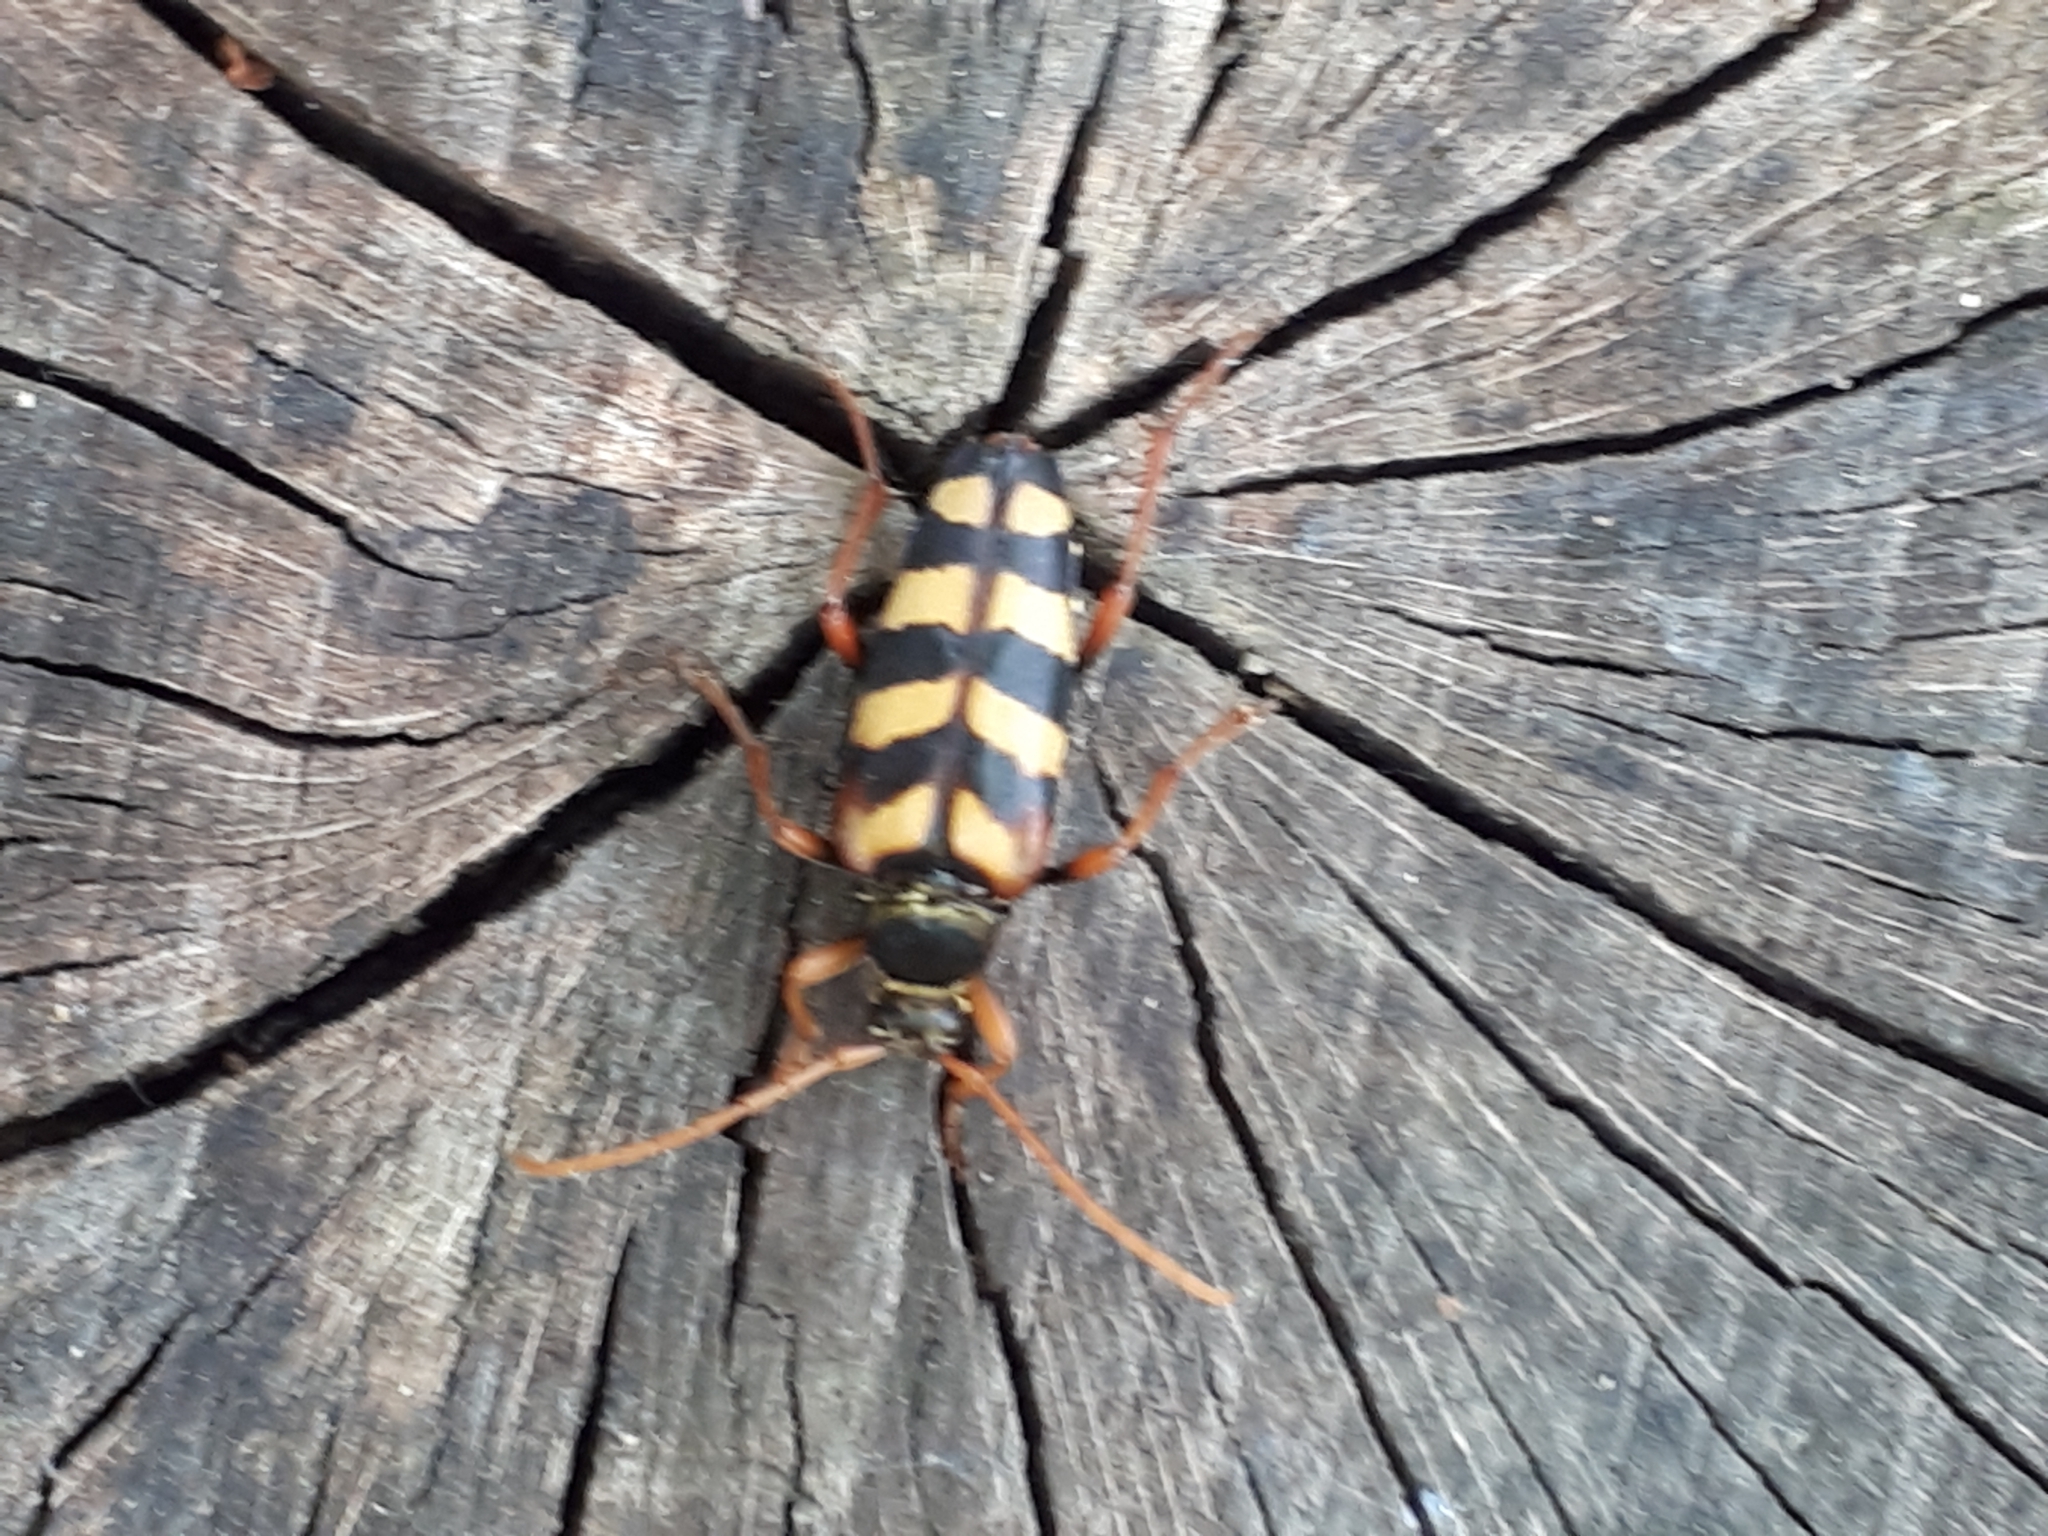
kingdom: Animalia
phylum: Arthropoda
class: Insecta
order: Coleoptera
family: Cerambycidae
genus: Leptura
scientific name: Leptura aurulenta
